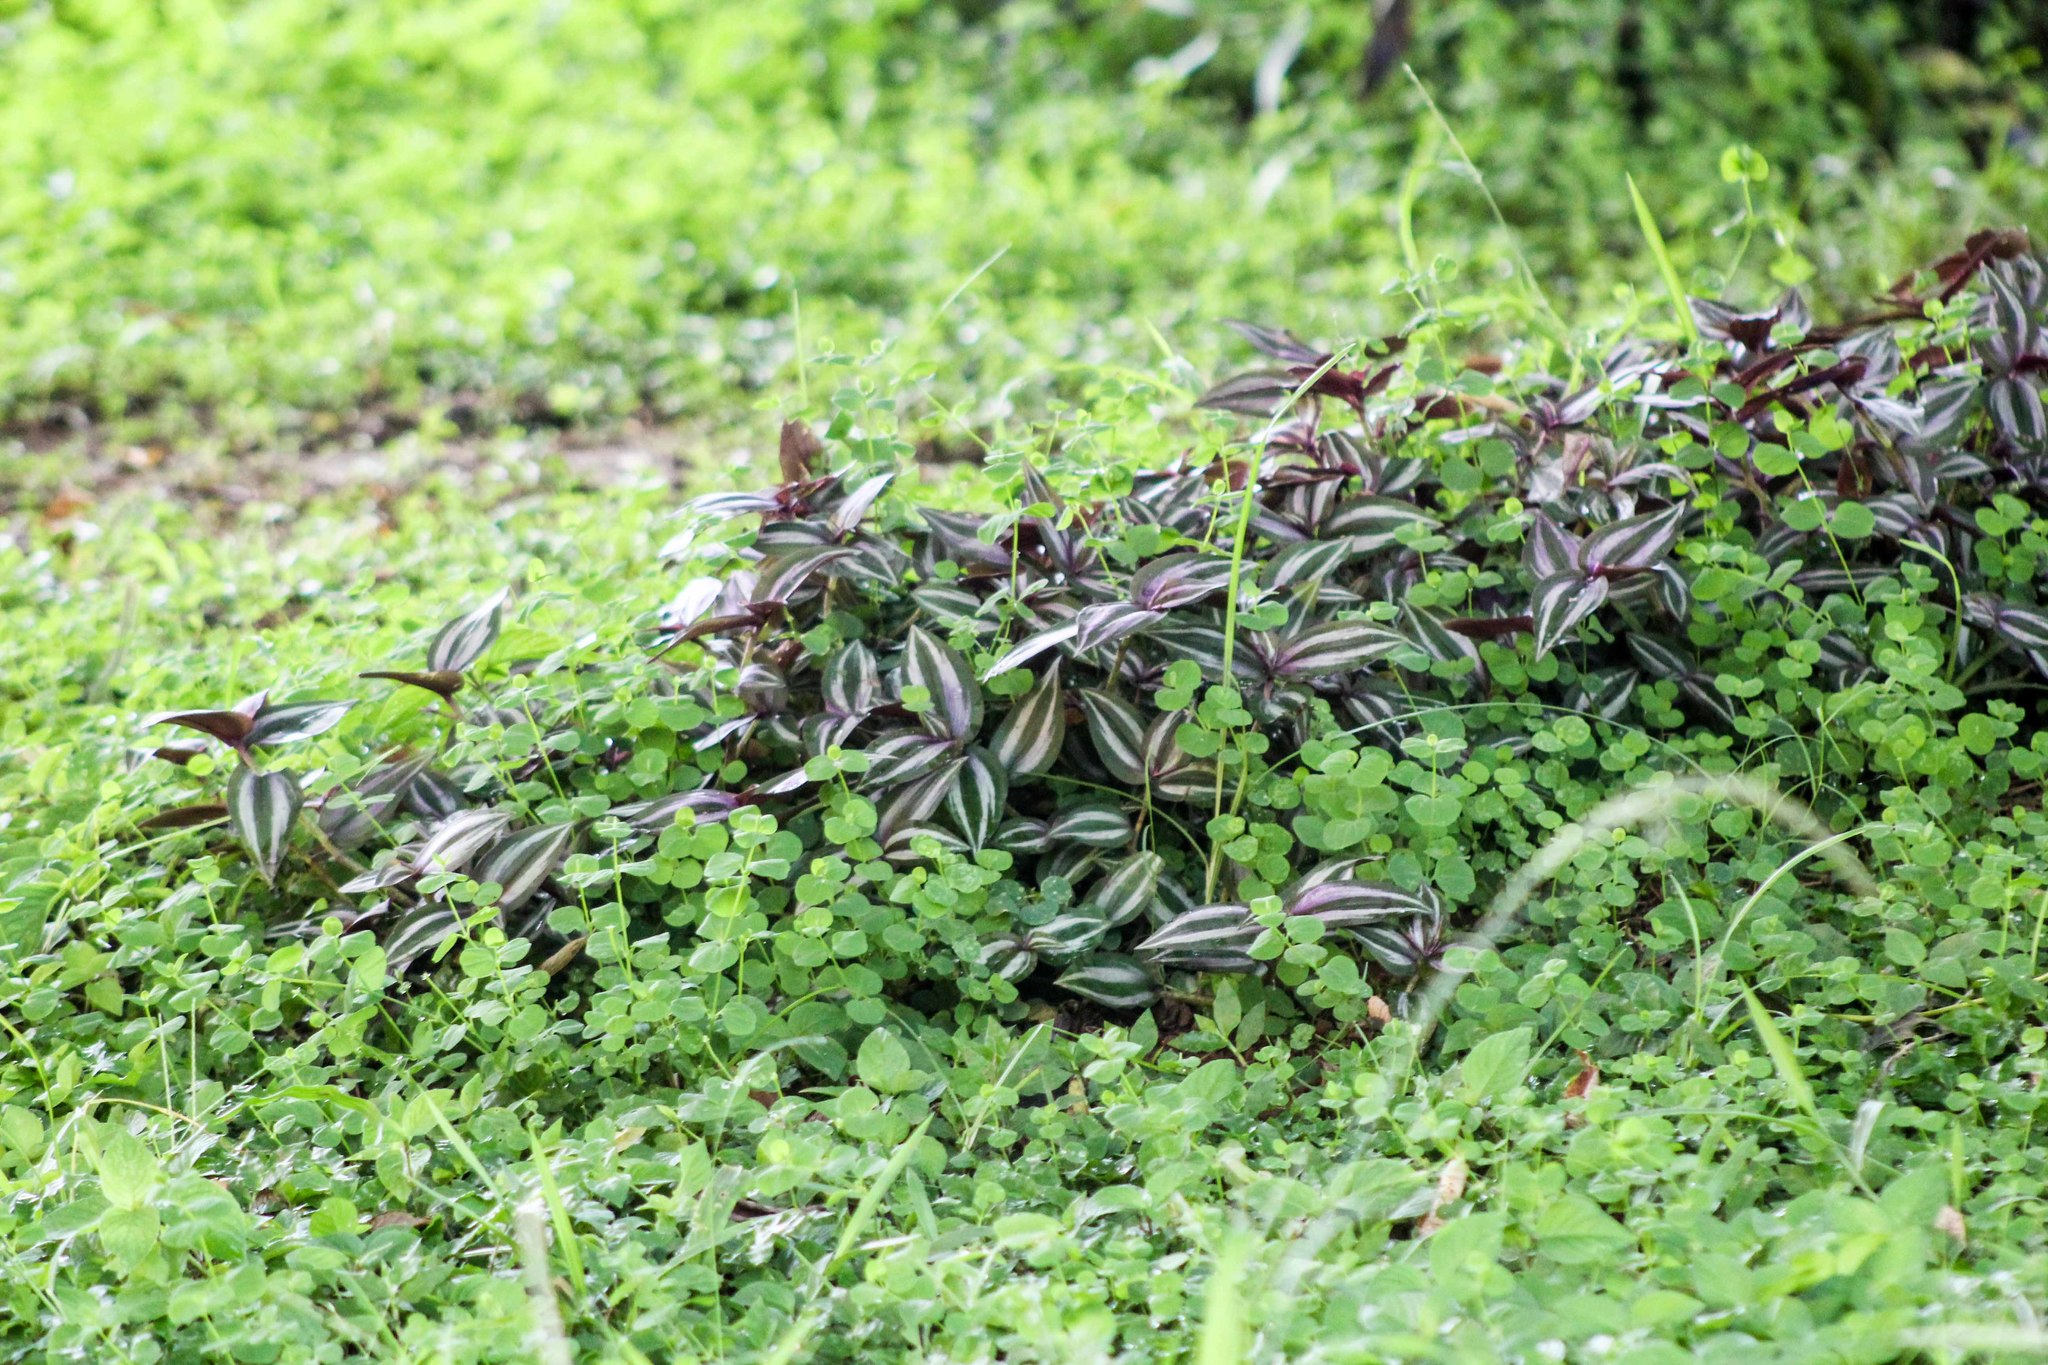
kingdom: Plantae
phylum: Tracheophyta
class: Liliopsida
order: Commelinales
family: Commelinaceae
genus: Tradescantia
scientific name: Tradescantia zebrina
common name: Inchplant
